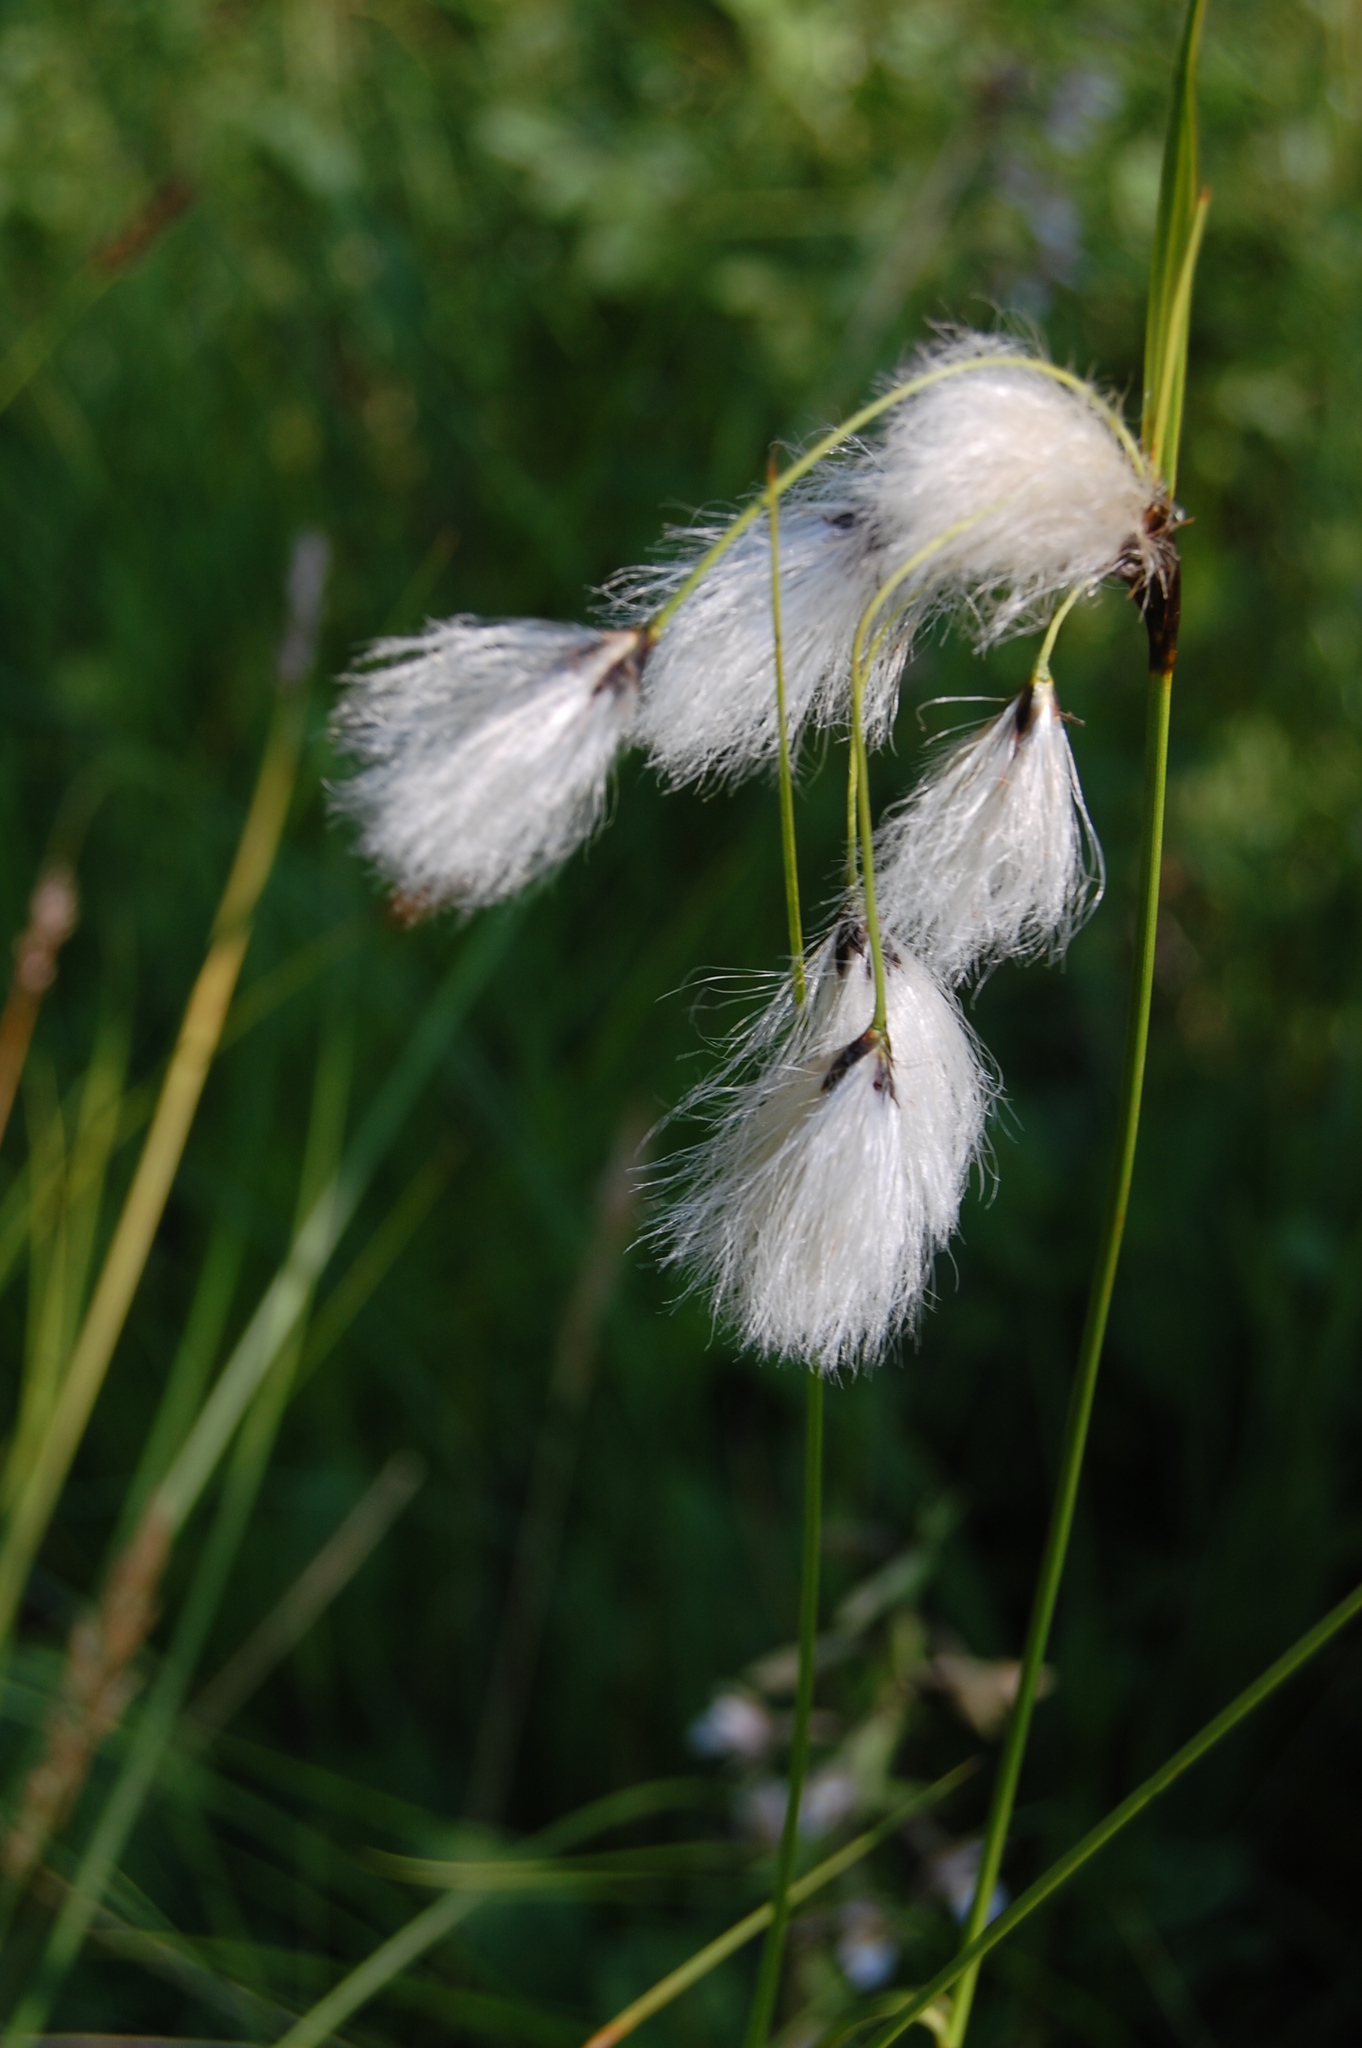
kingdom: Plantae
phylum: Tracheophyta
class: Liliopsida
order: Poales
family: Cyperaceae
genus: Eriophorum
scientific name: Eriophorum angustifolium
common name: Common cottongrass
